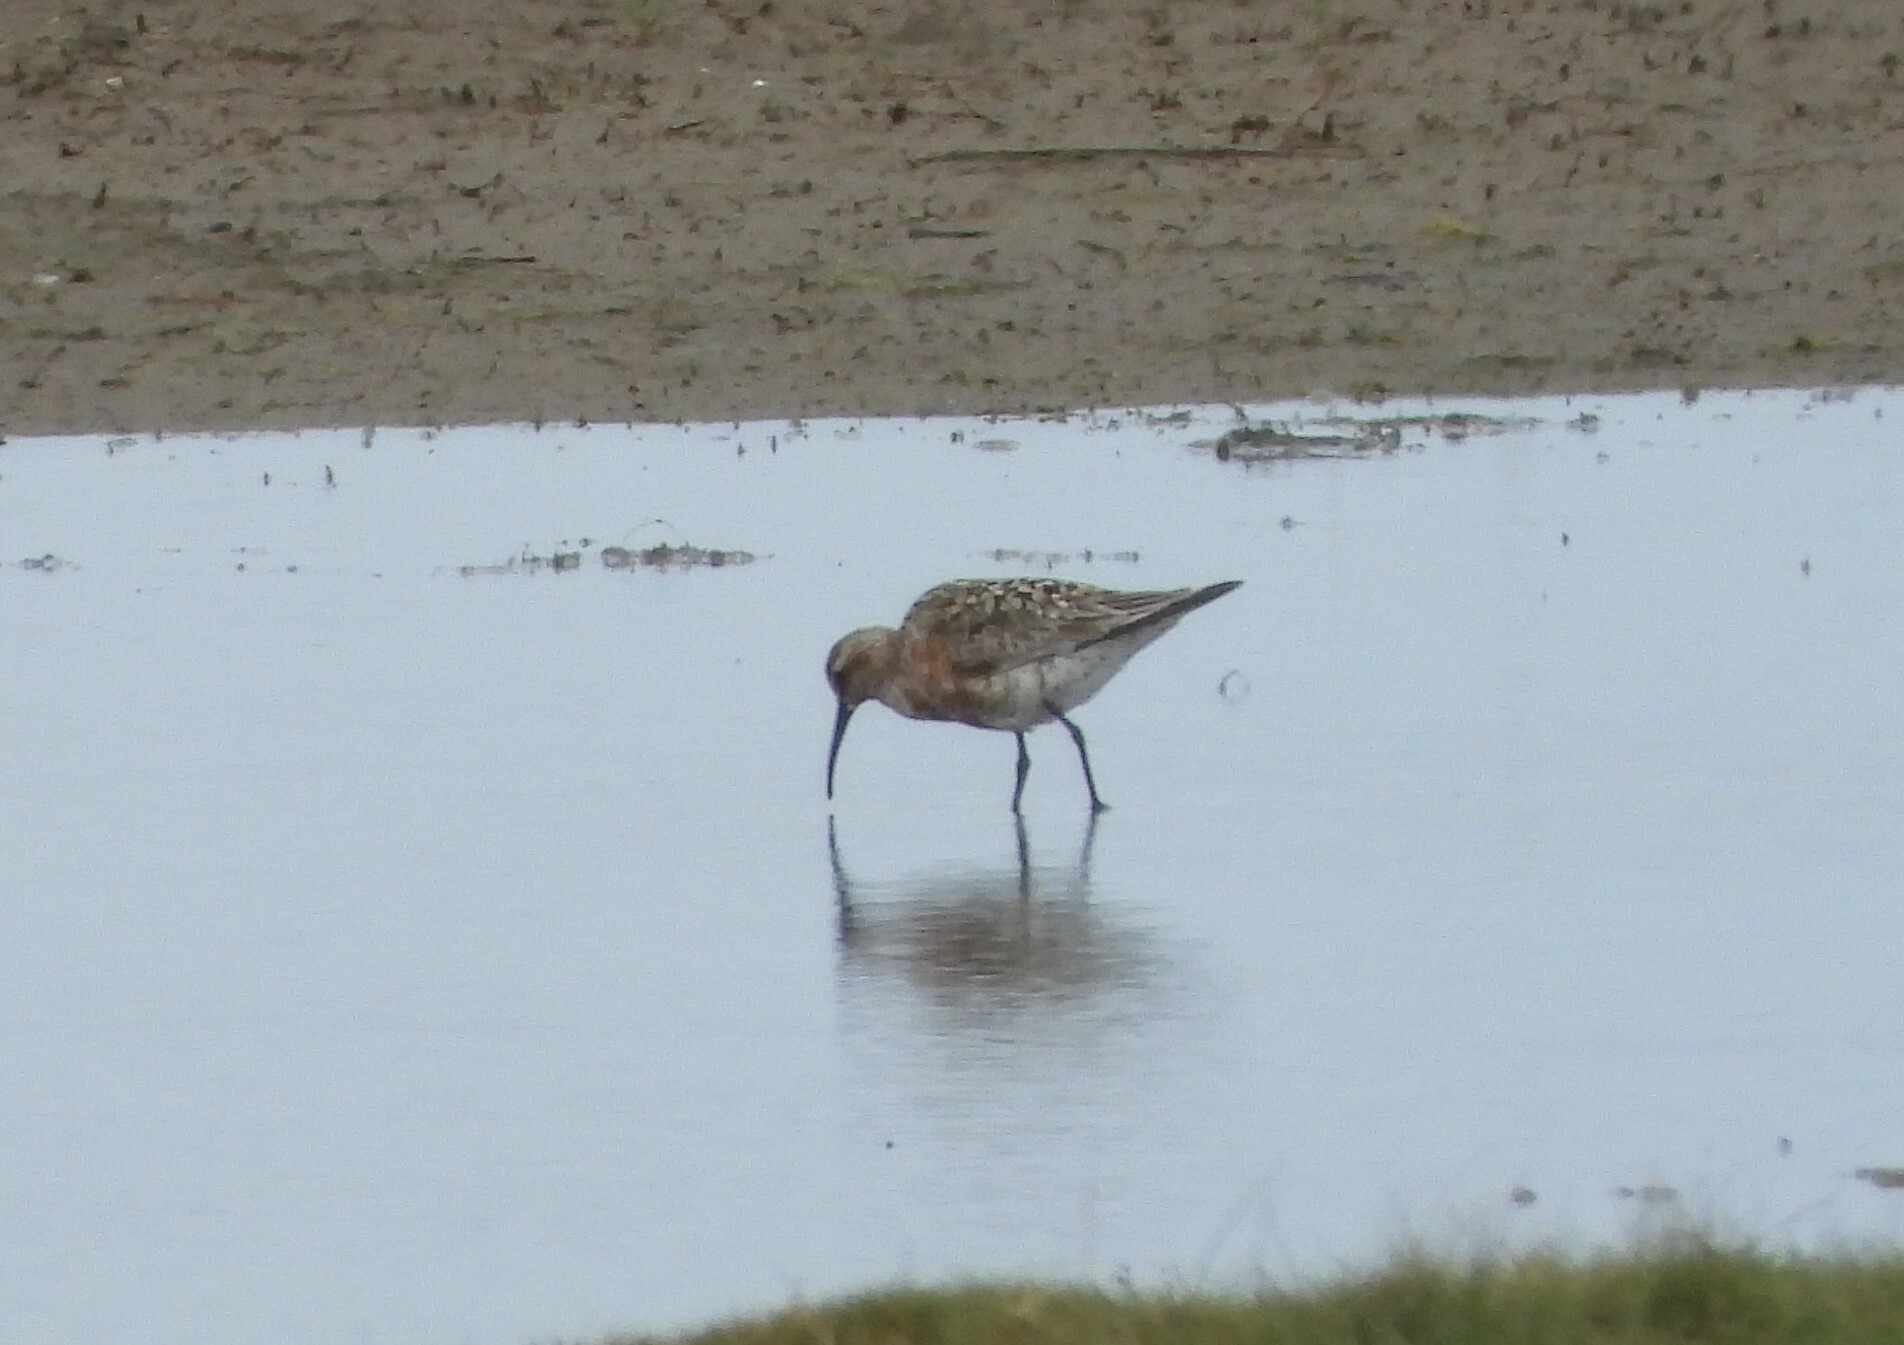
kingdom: Animalia
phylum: Chordata
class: Aves
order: Charadriiformes
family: Scolopacidae
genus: Calidris
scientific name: Calidris ferruginea
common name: Curlew sandpiper
